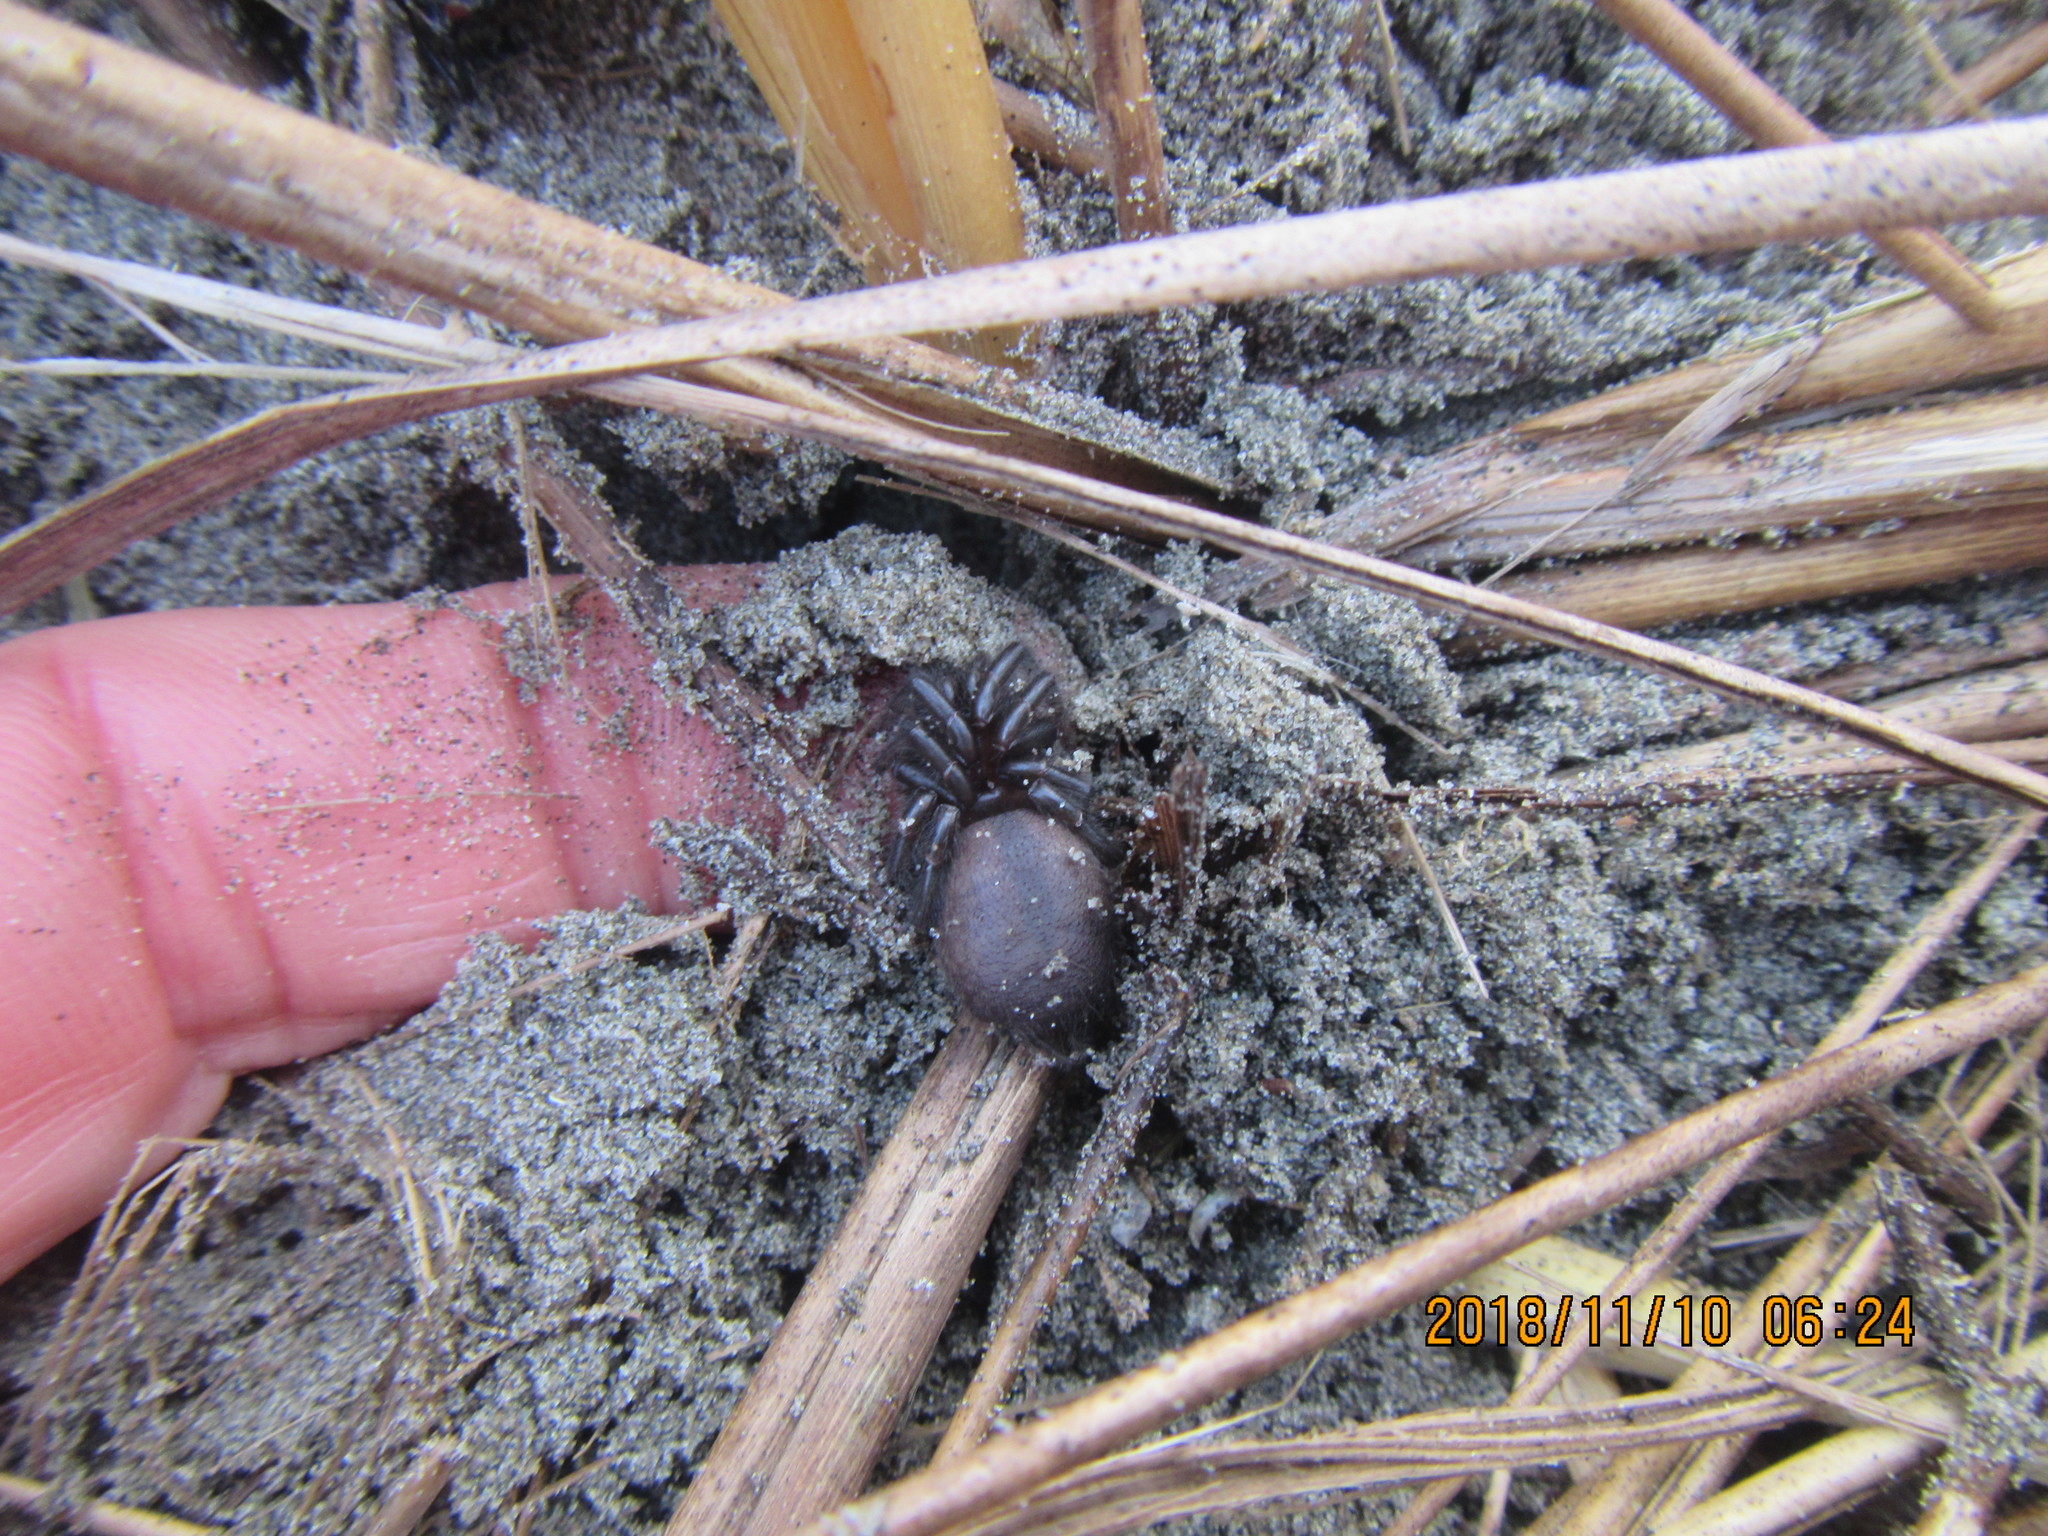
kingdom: Animalia
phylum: Arthropoda
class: Arachnida
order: Araneae
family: Porrhothelidae
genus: Porrhothele
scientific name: Porrhothele antipodiana
